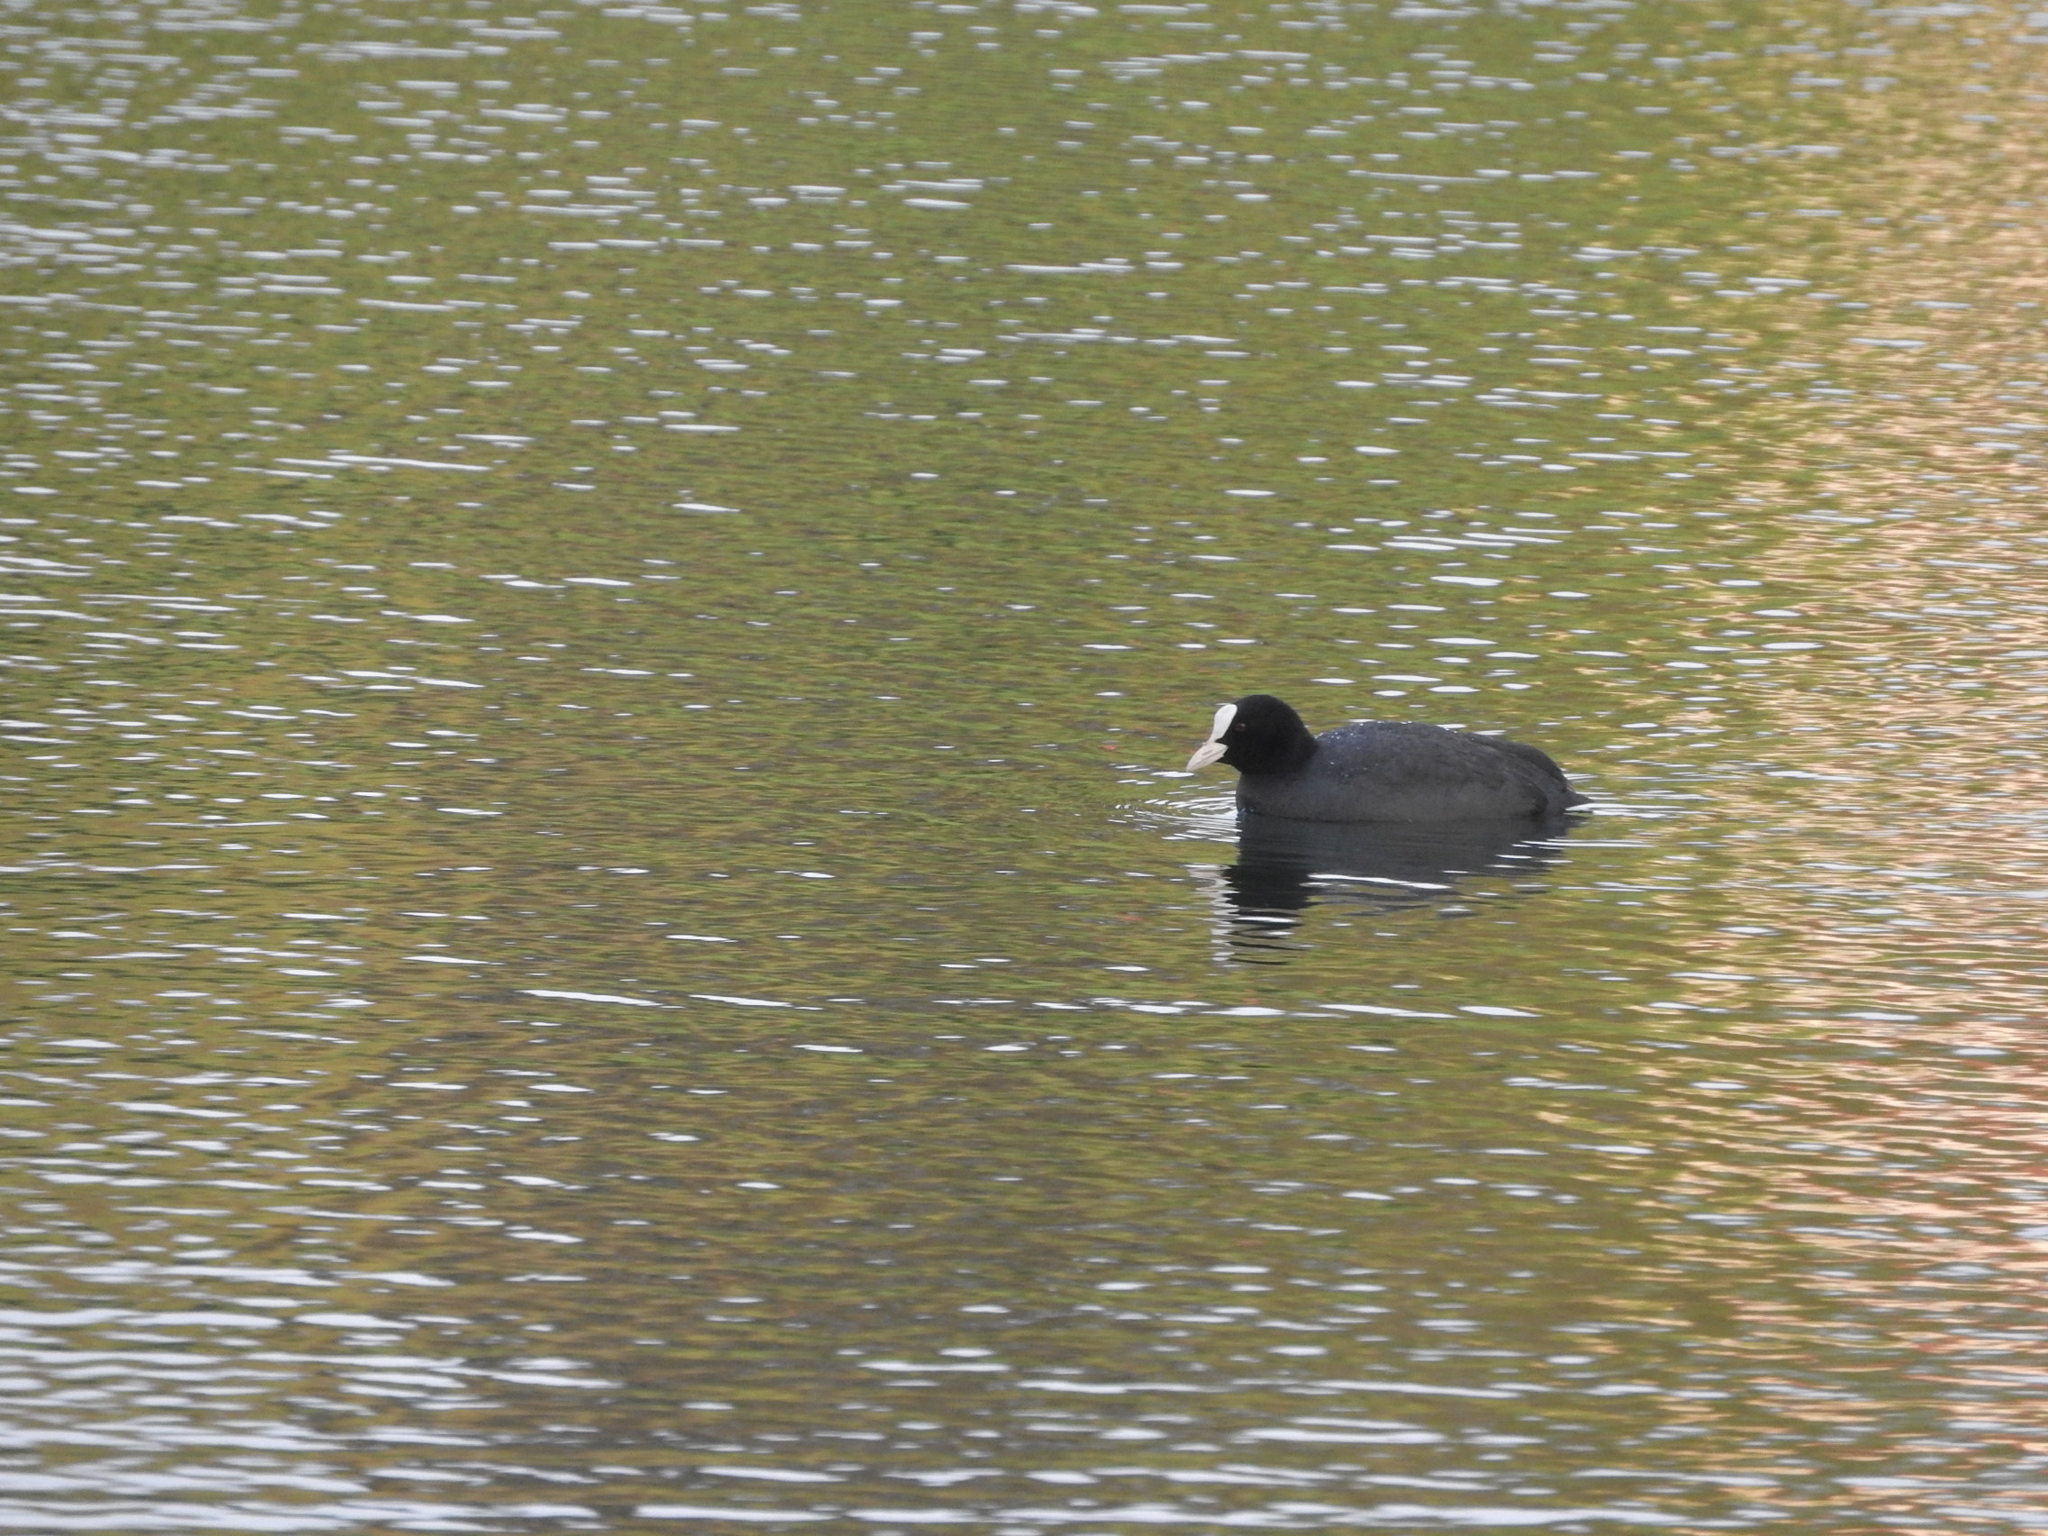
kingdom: Animalia
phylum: Chordata
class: Aves
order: Gruiformes
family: Rallidae
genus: Fulica
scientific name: Fulica atra
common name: Eurasian coot
